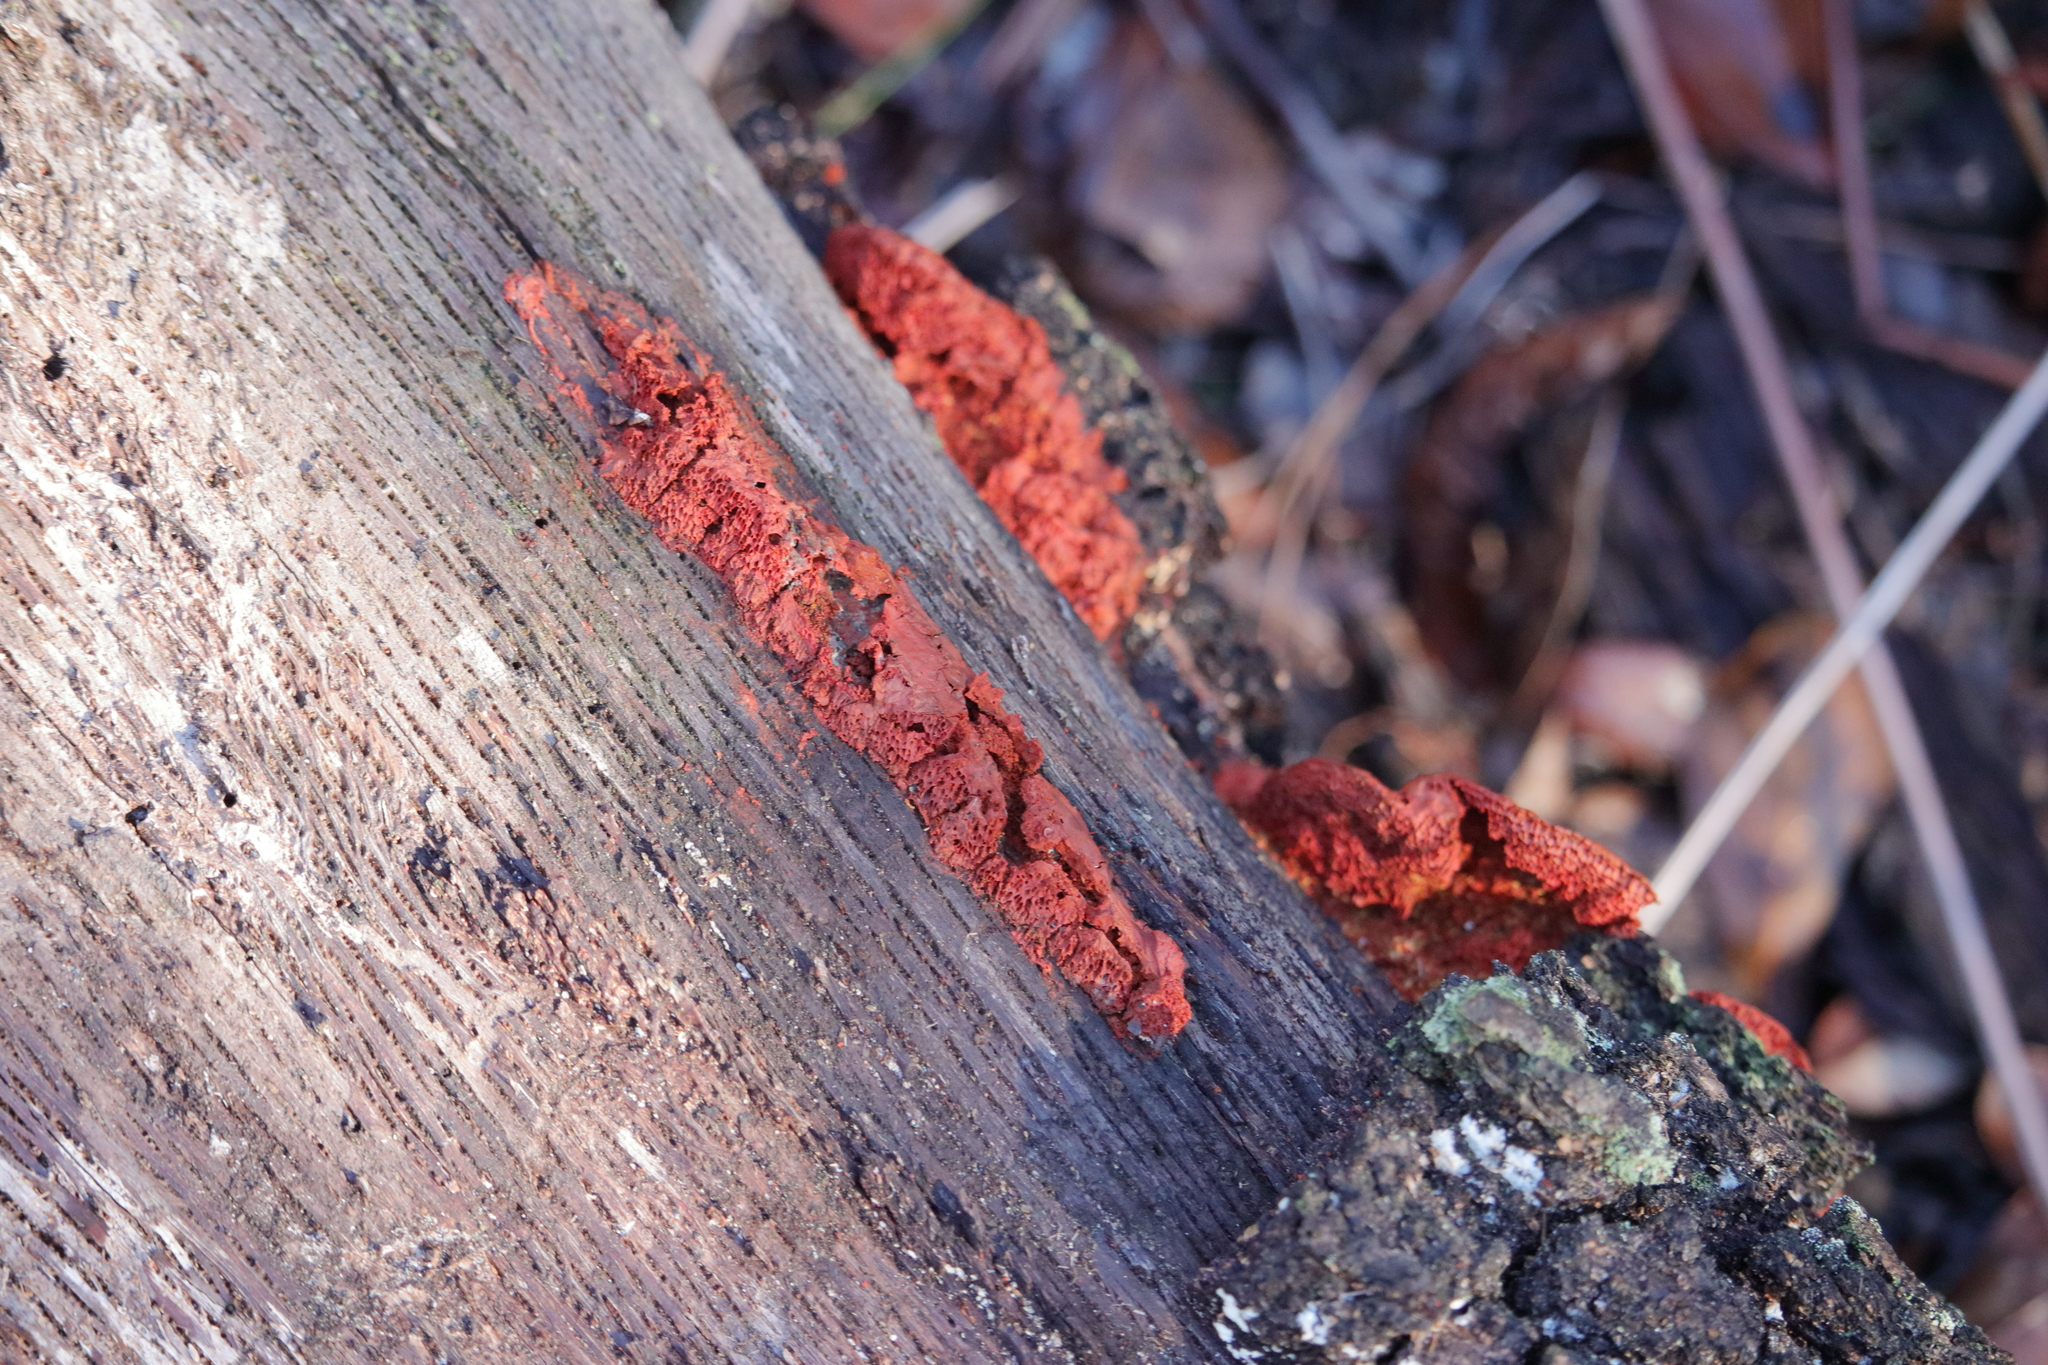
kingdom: Protozoa
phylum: Mycetozoa
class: Myxomycetes
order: Trichiales
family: Arcyriaceae
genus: Arcyria
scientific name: Arcyria denudata
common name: Carnival candy slime mold
